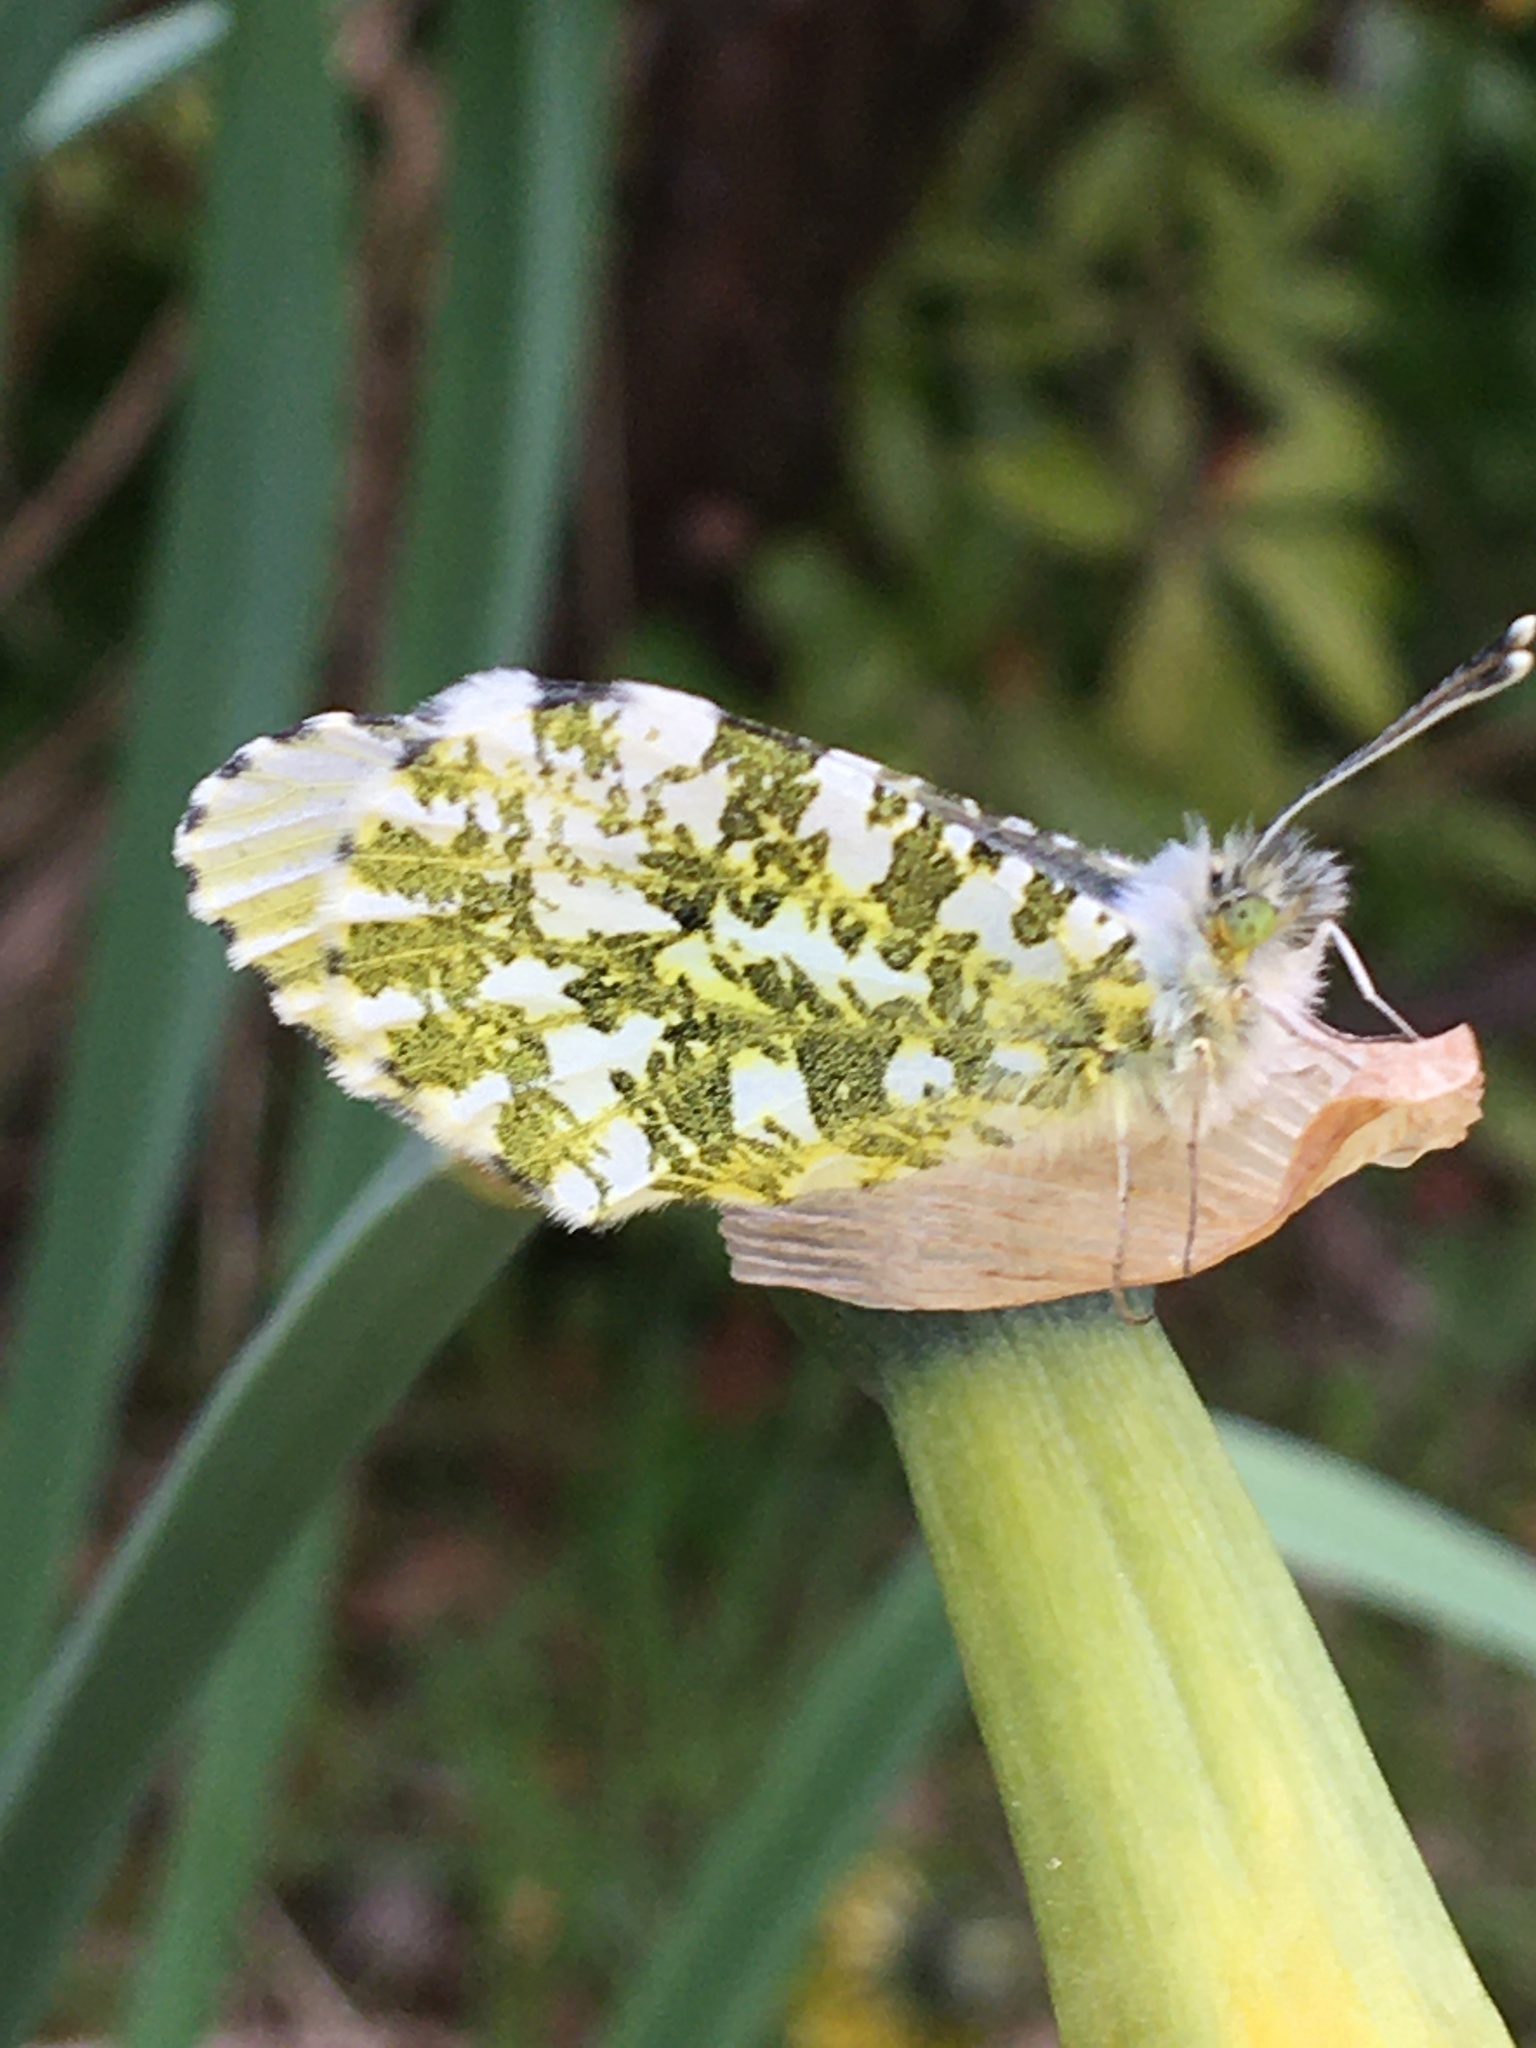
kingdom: Animalia
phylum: Arthropoda
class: Insecta
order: Lepidoptera
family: Pieridae
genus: Anthocharis
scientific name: Anthocharis cardamines
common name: Orange-tip
